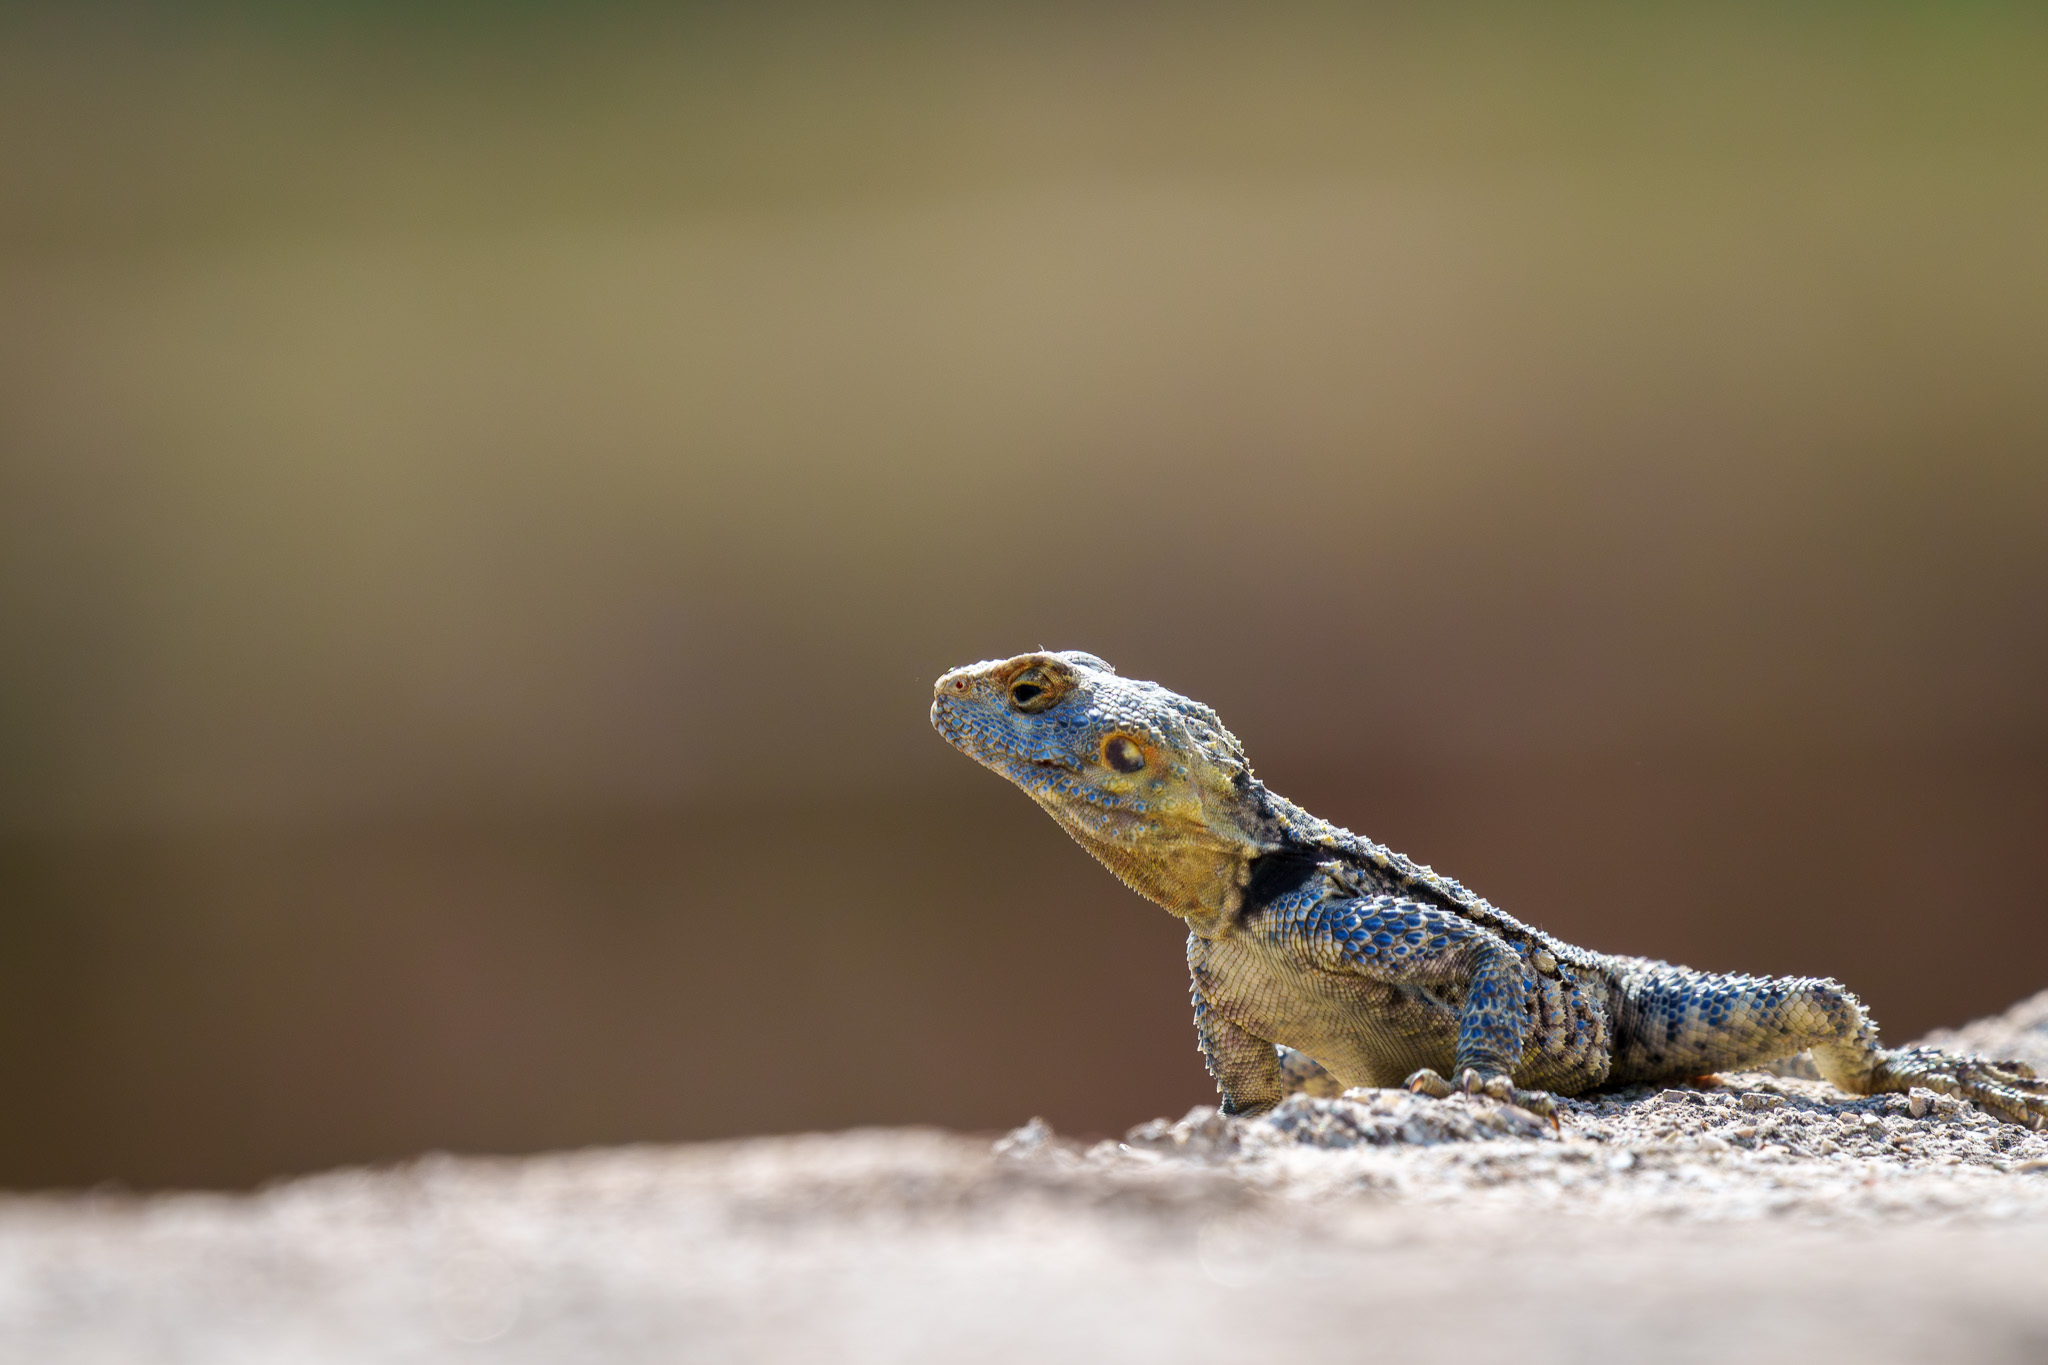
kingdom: Animalia
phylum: Chordata
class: Squamata
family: Agamidae
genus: Stellagama
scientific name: Stellagama stellio
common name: Starred agama
